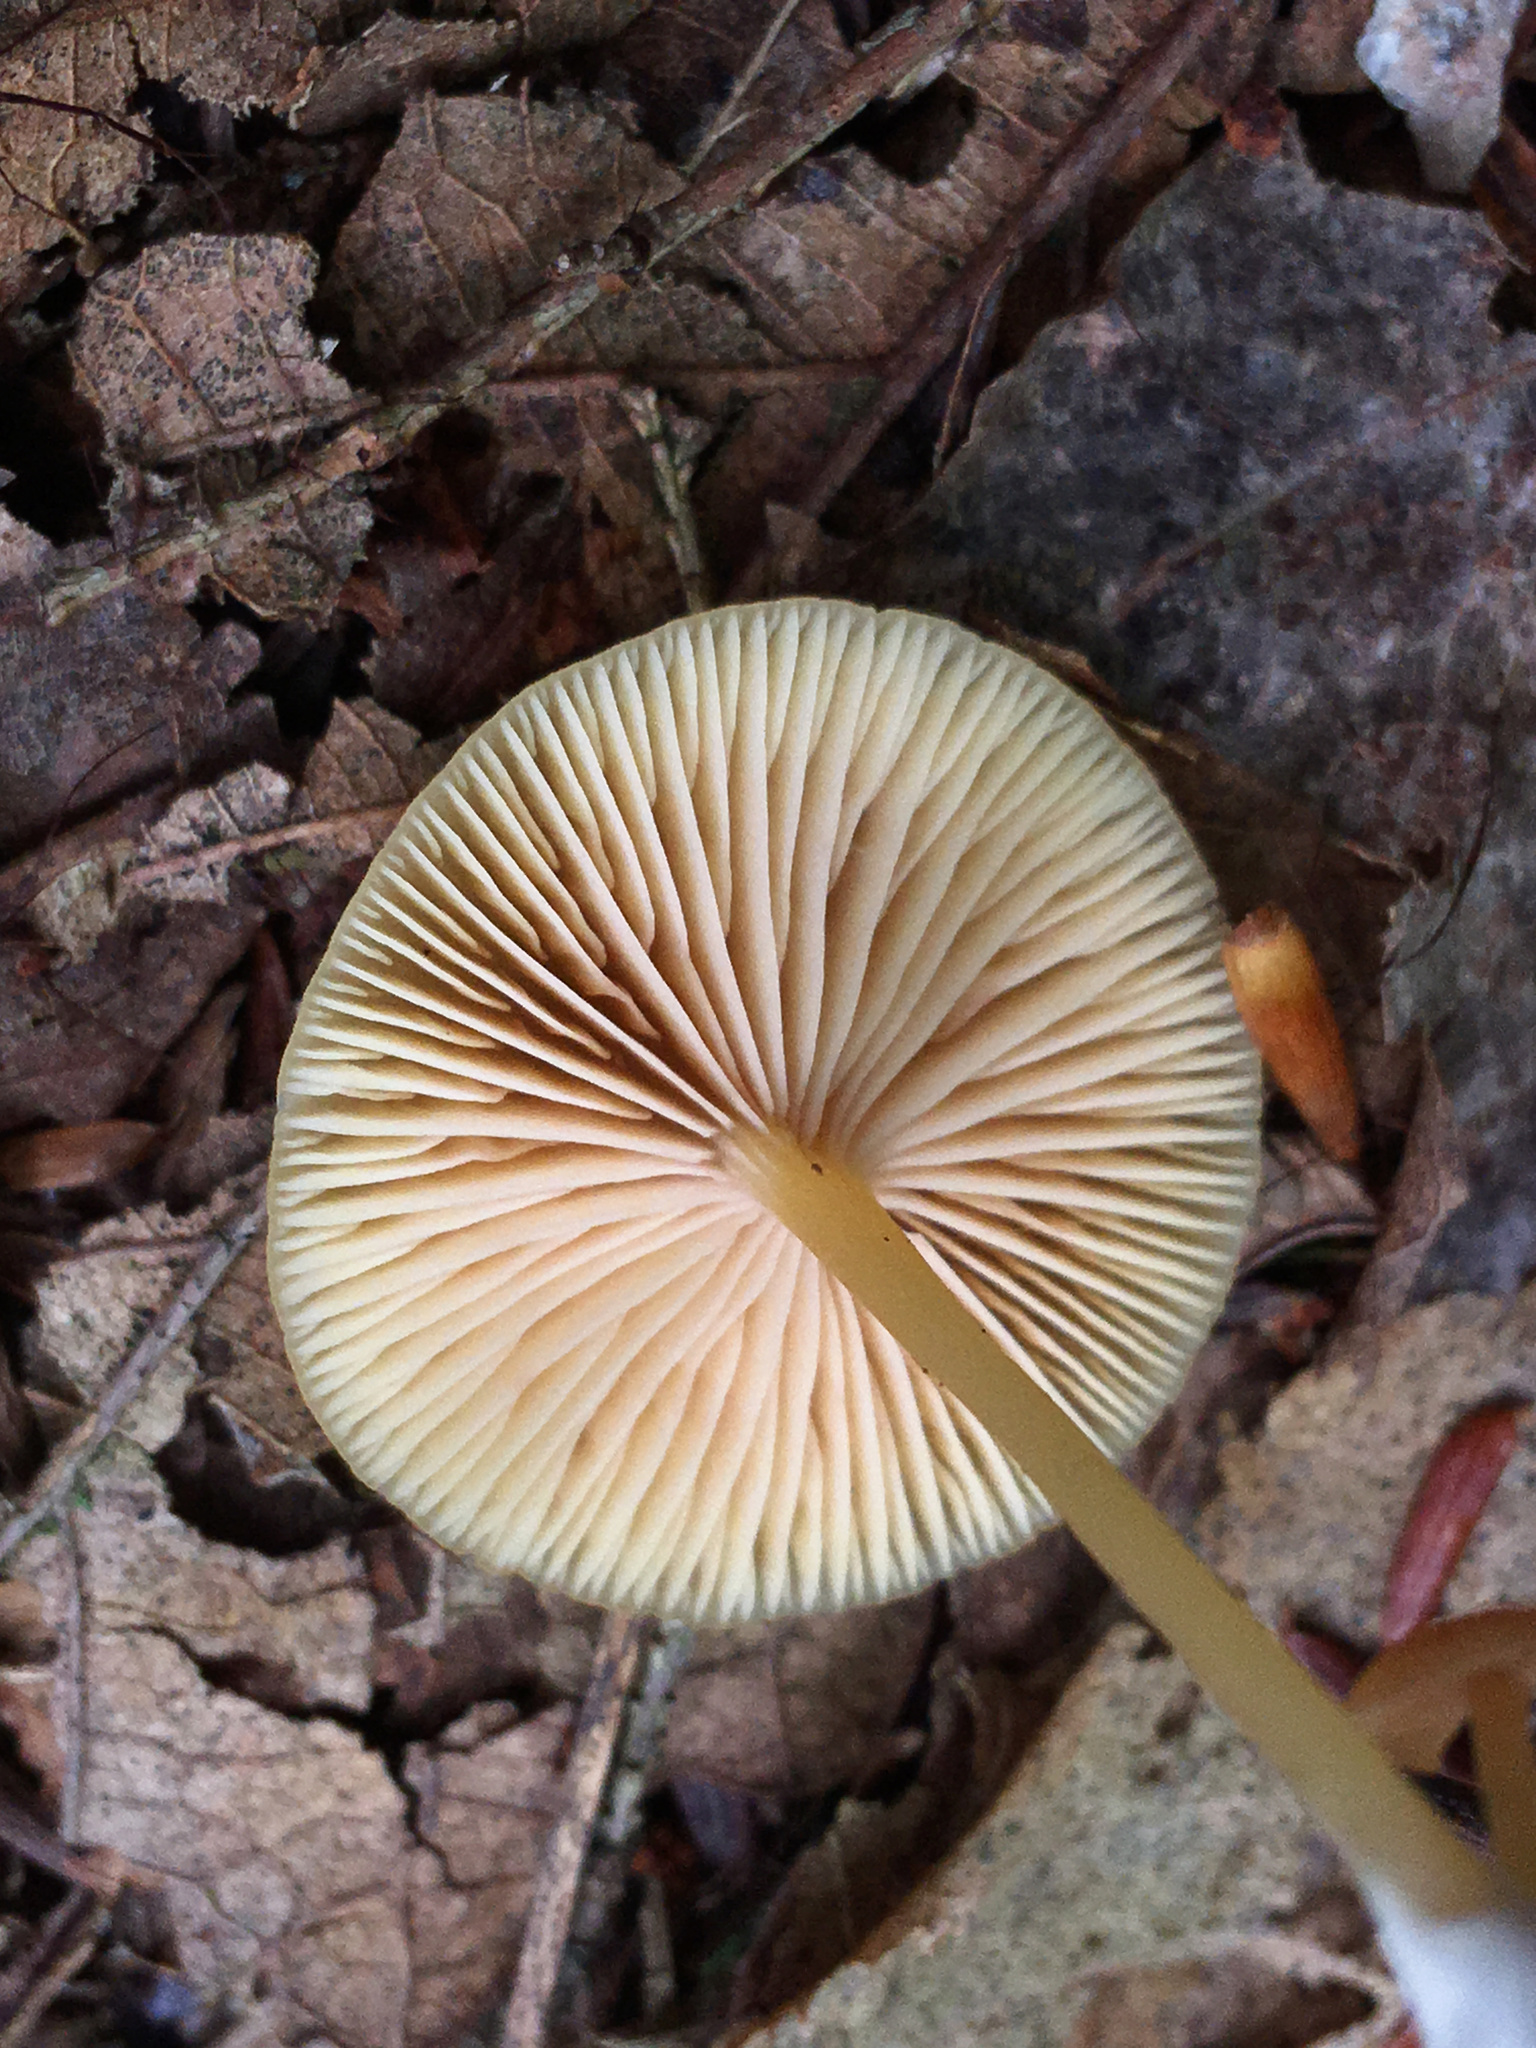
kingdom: Fungi
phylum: Basidiomycota
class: Agaricomycetes
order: Agaricales
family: Entolomataceae
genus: Entoloma
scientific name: Entoloma farlowii
